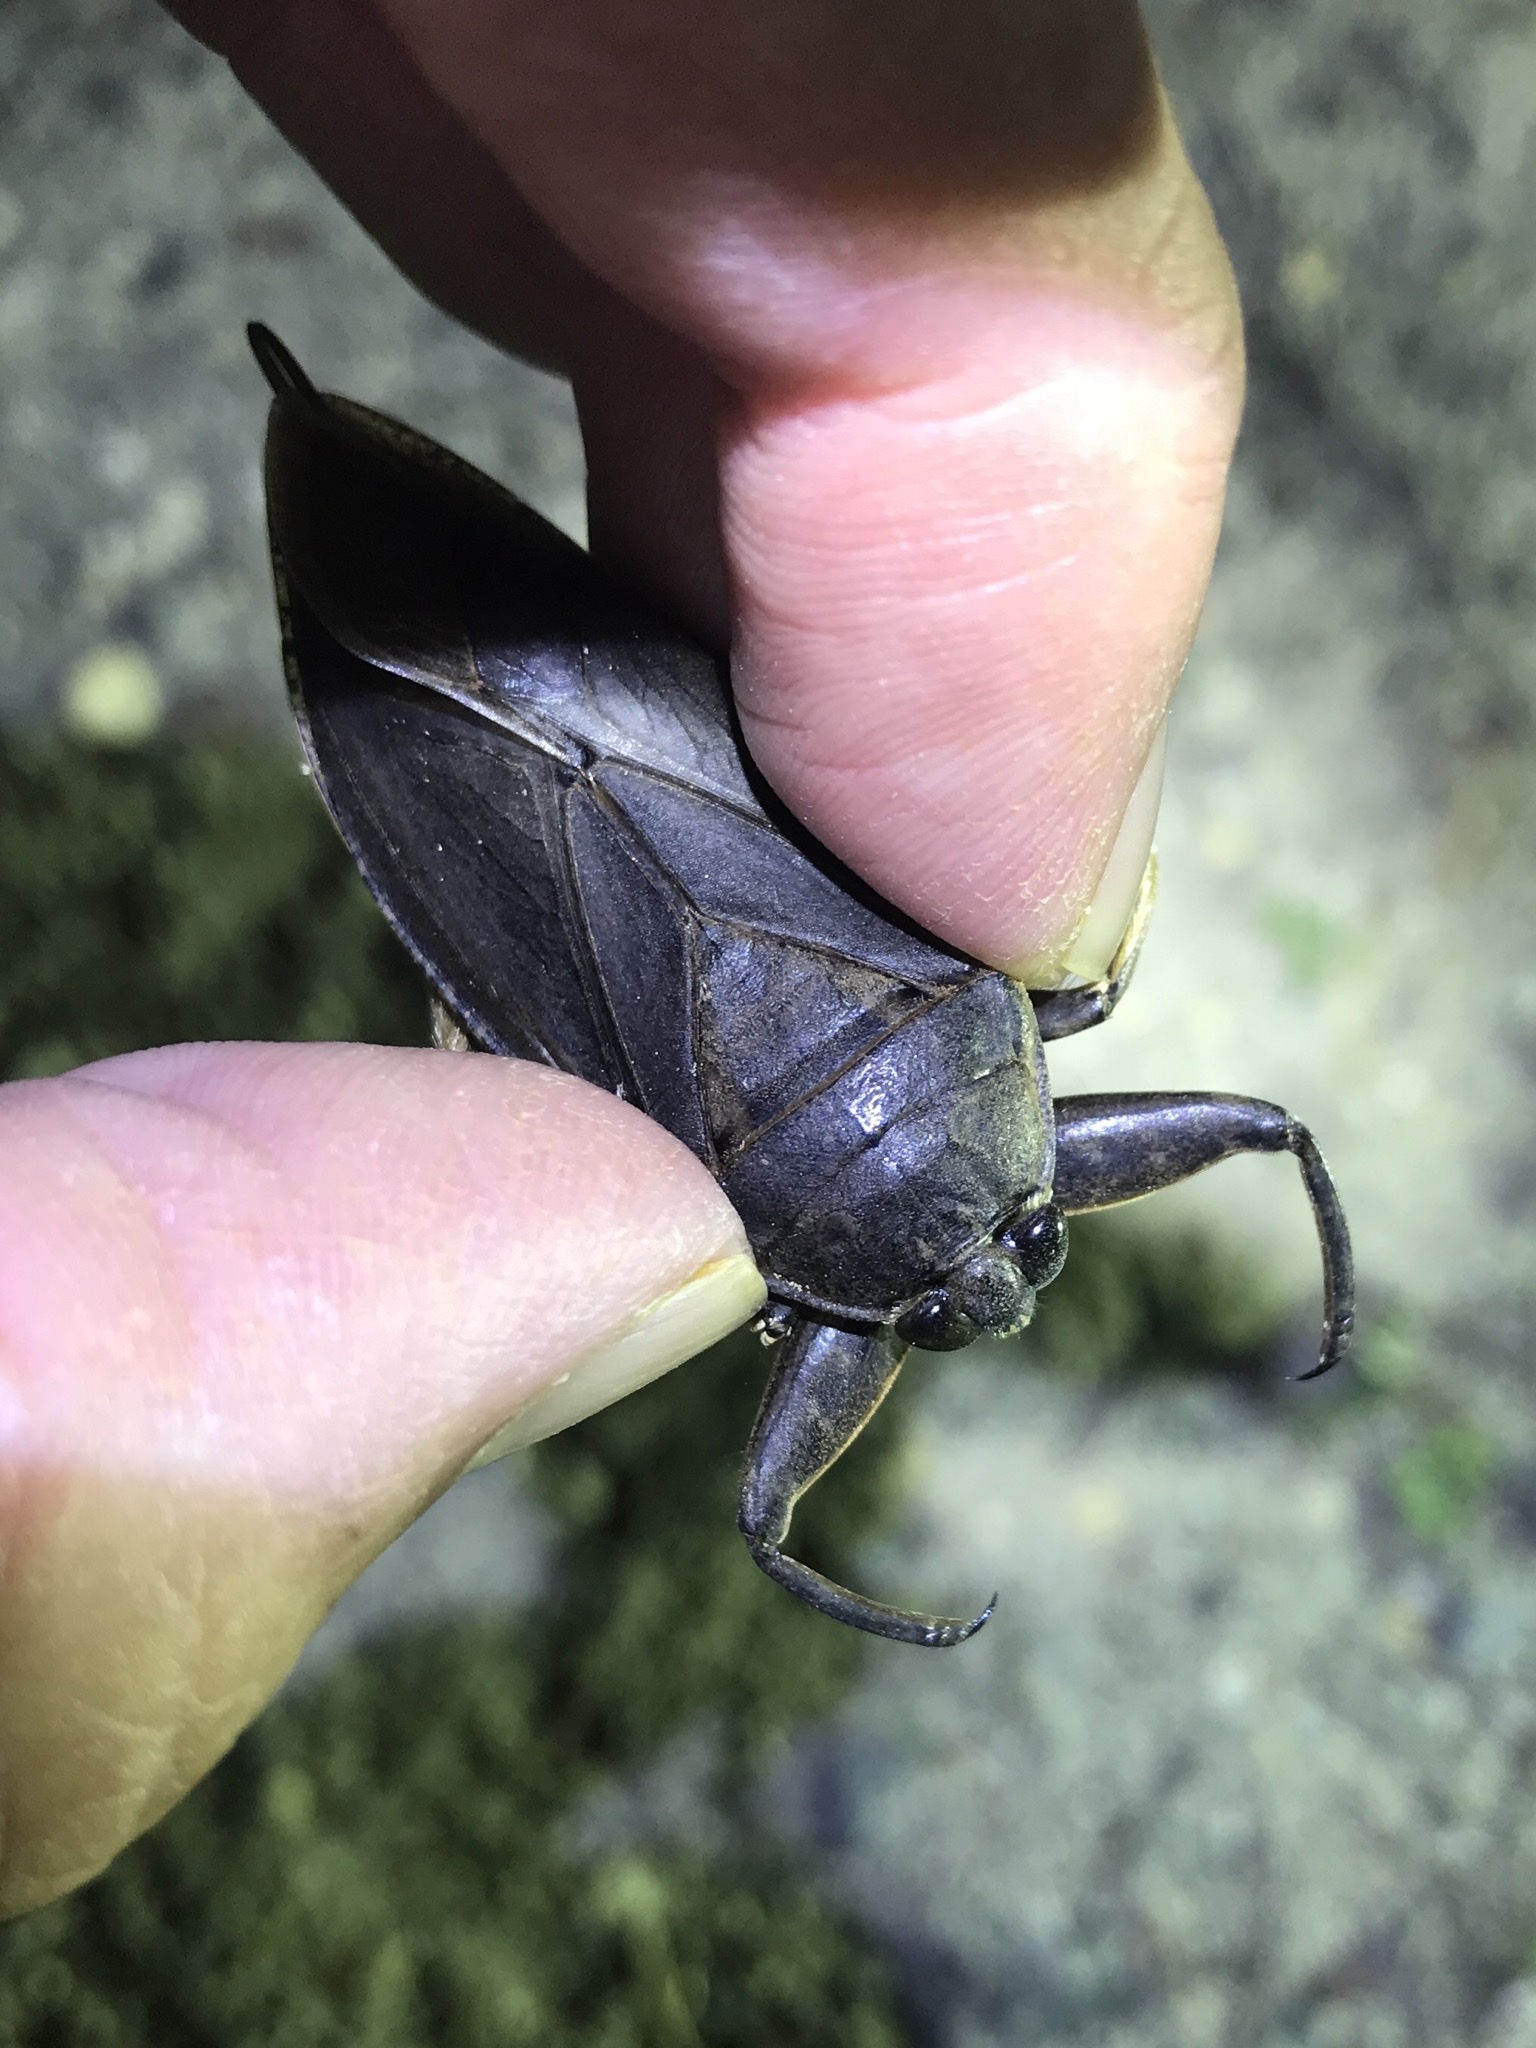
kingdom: Animalia
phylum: Arthropoda
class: Insecta
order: Hemiptera
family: Belostomatidae
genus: Lethocerus
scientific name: Lethocerus americanus
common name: Giant water bug
